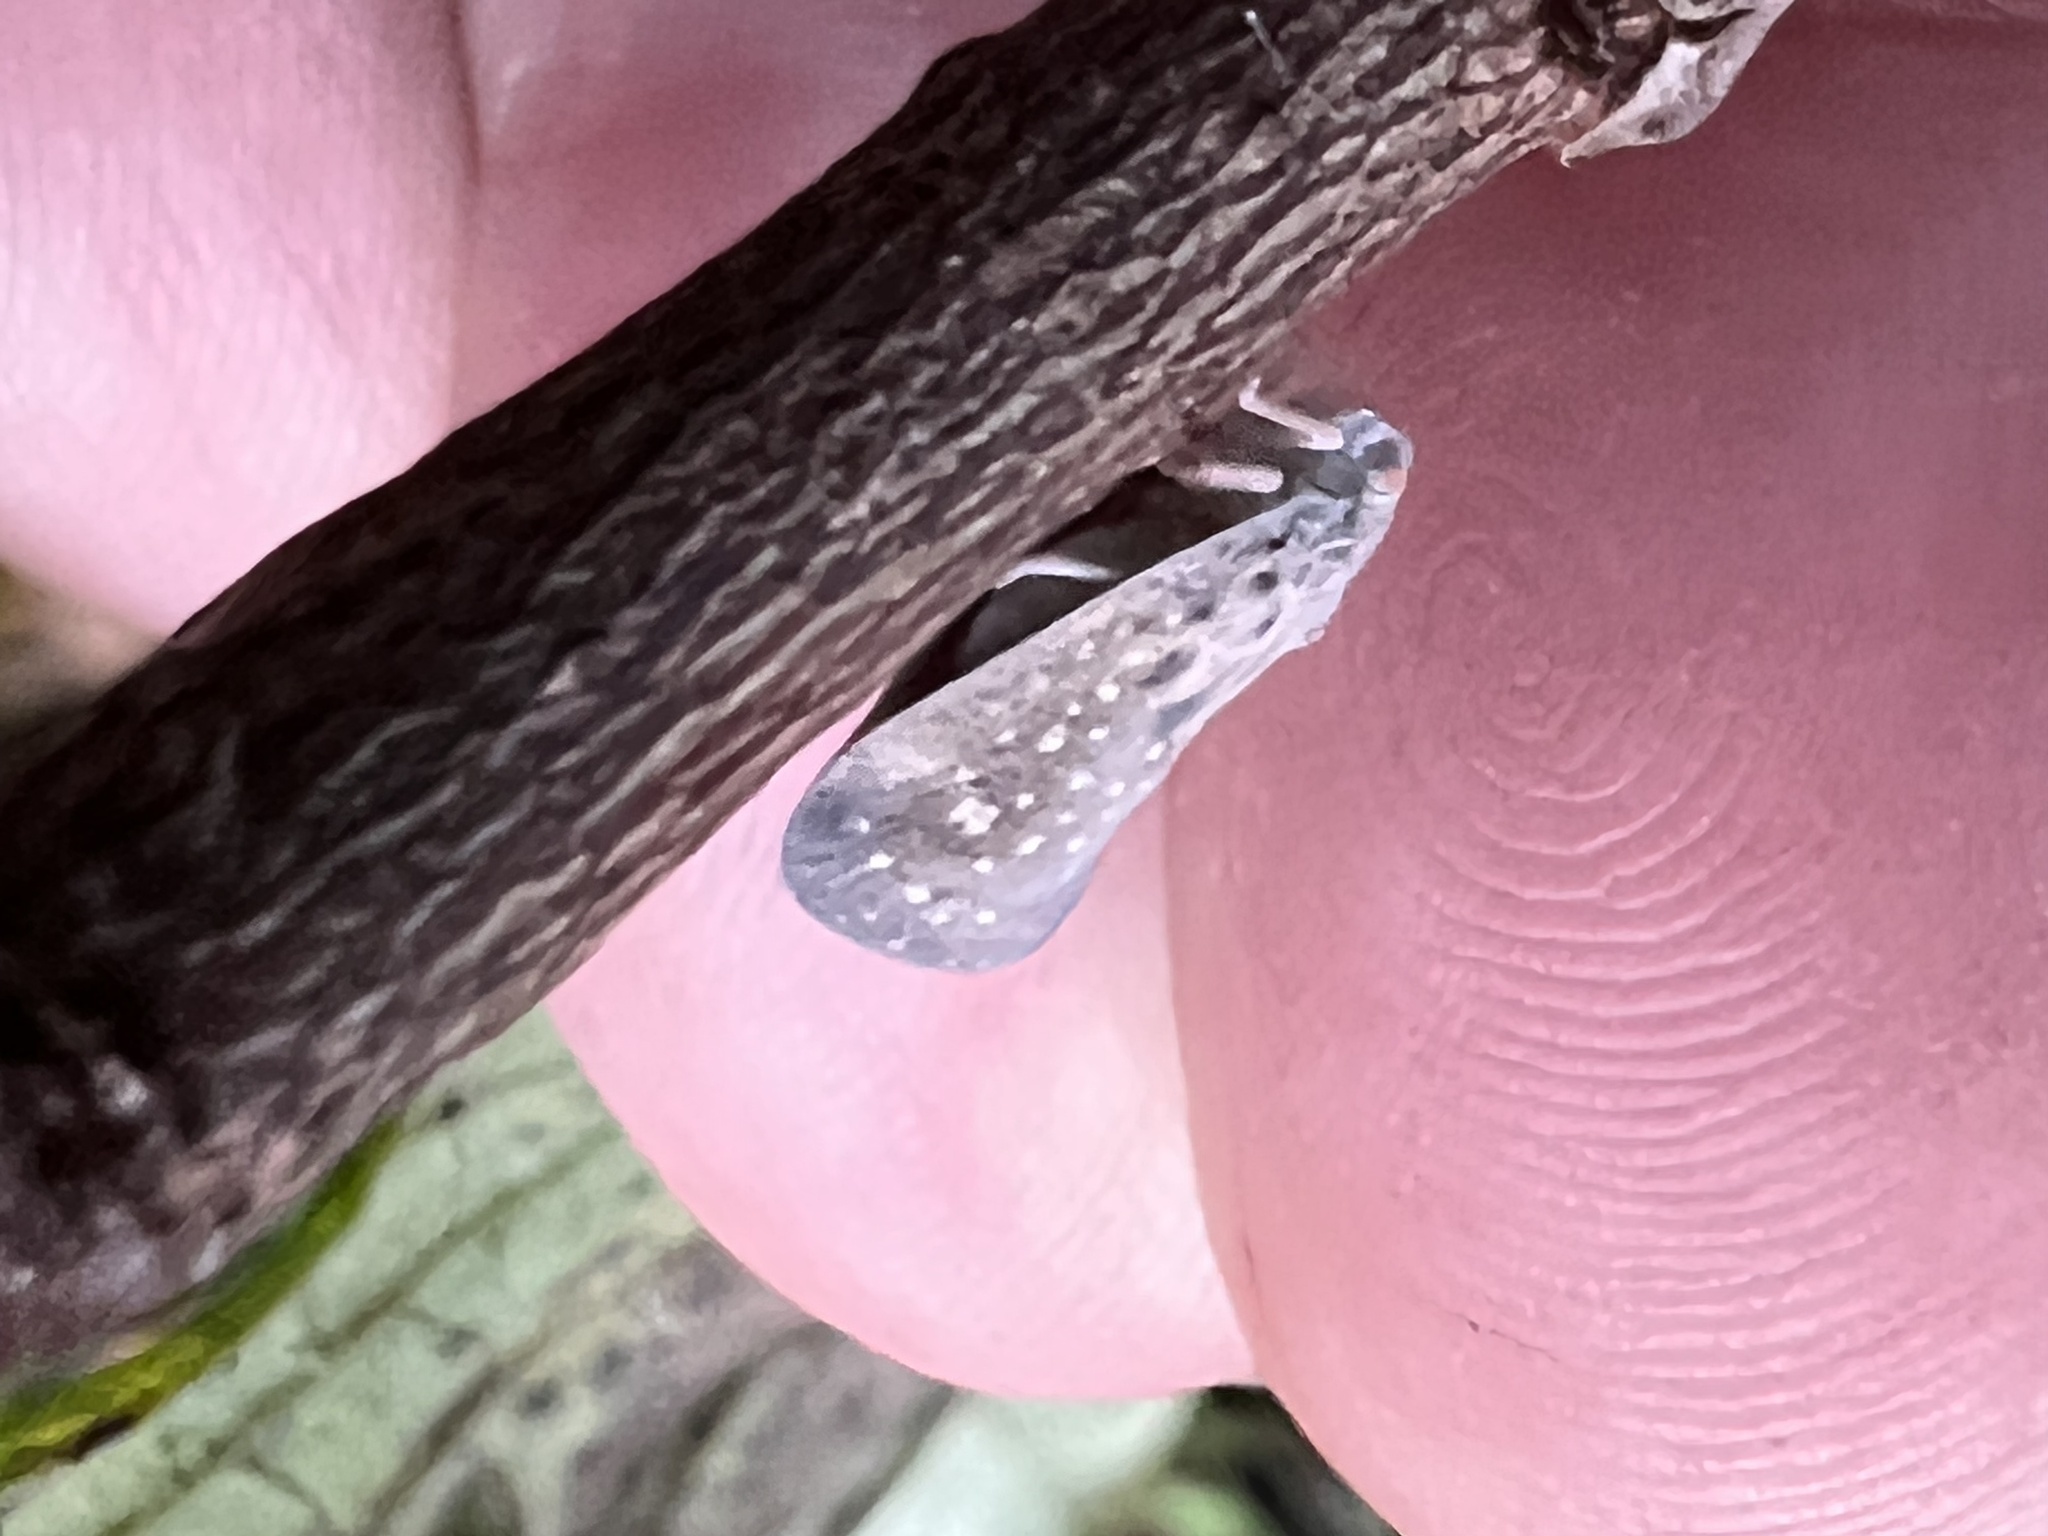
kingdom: Animalia
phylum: Arthropoda
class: Insecta
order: Hemiptera
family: Flatidae
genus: Metcalfa
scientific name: Metcalfa pruinosa
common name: Citrus flatid planthopper
